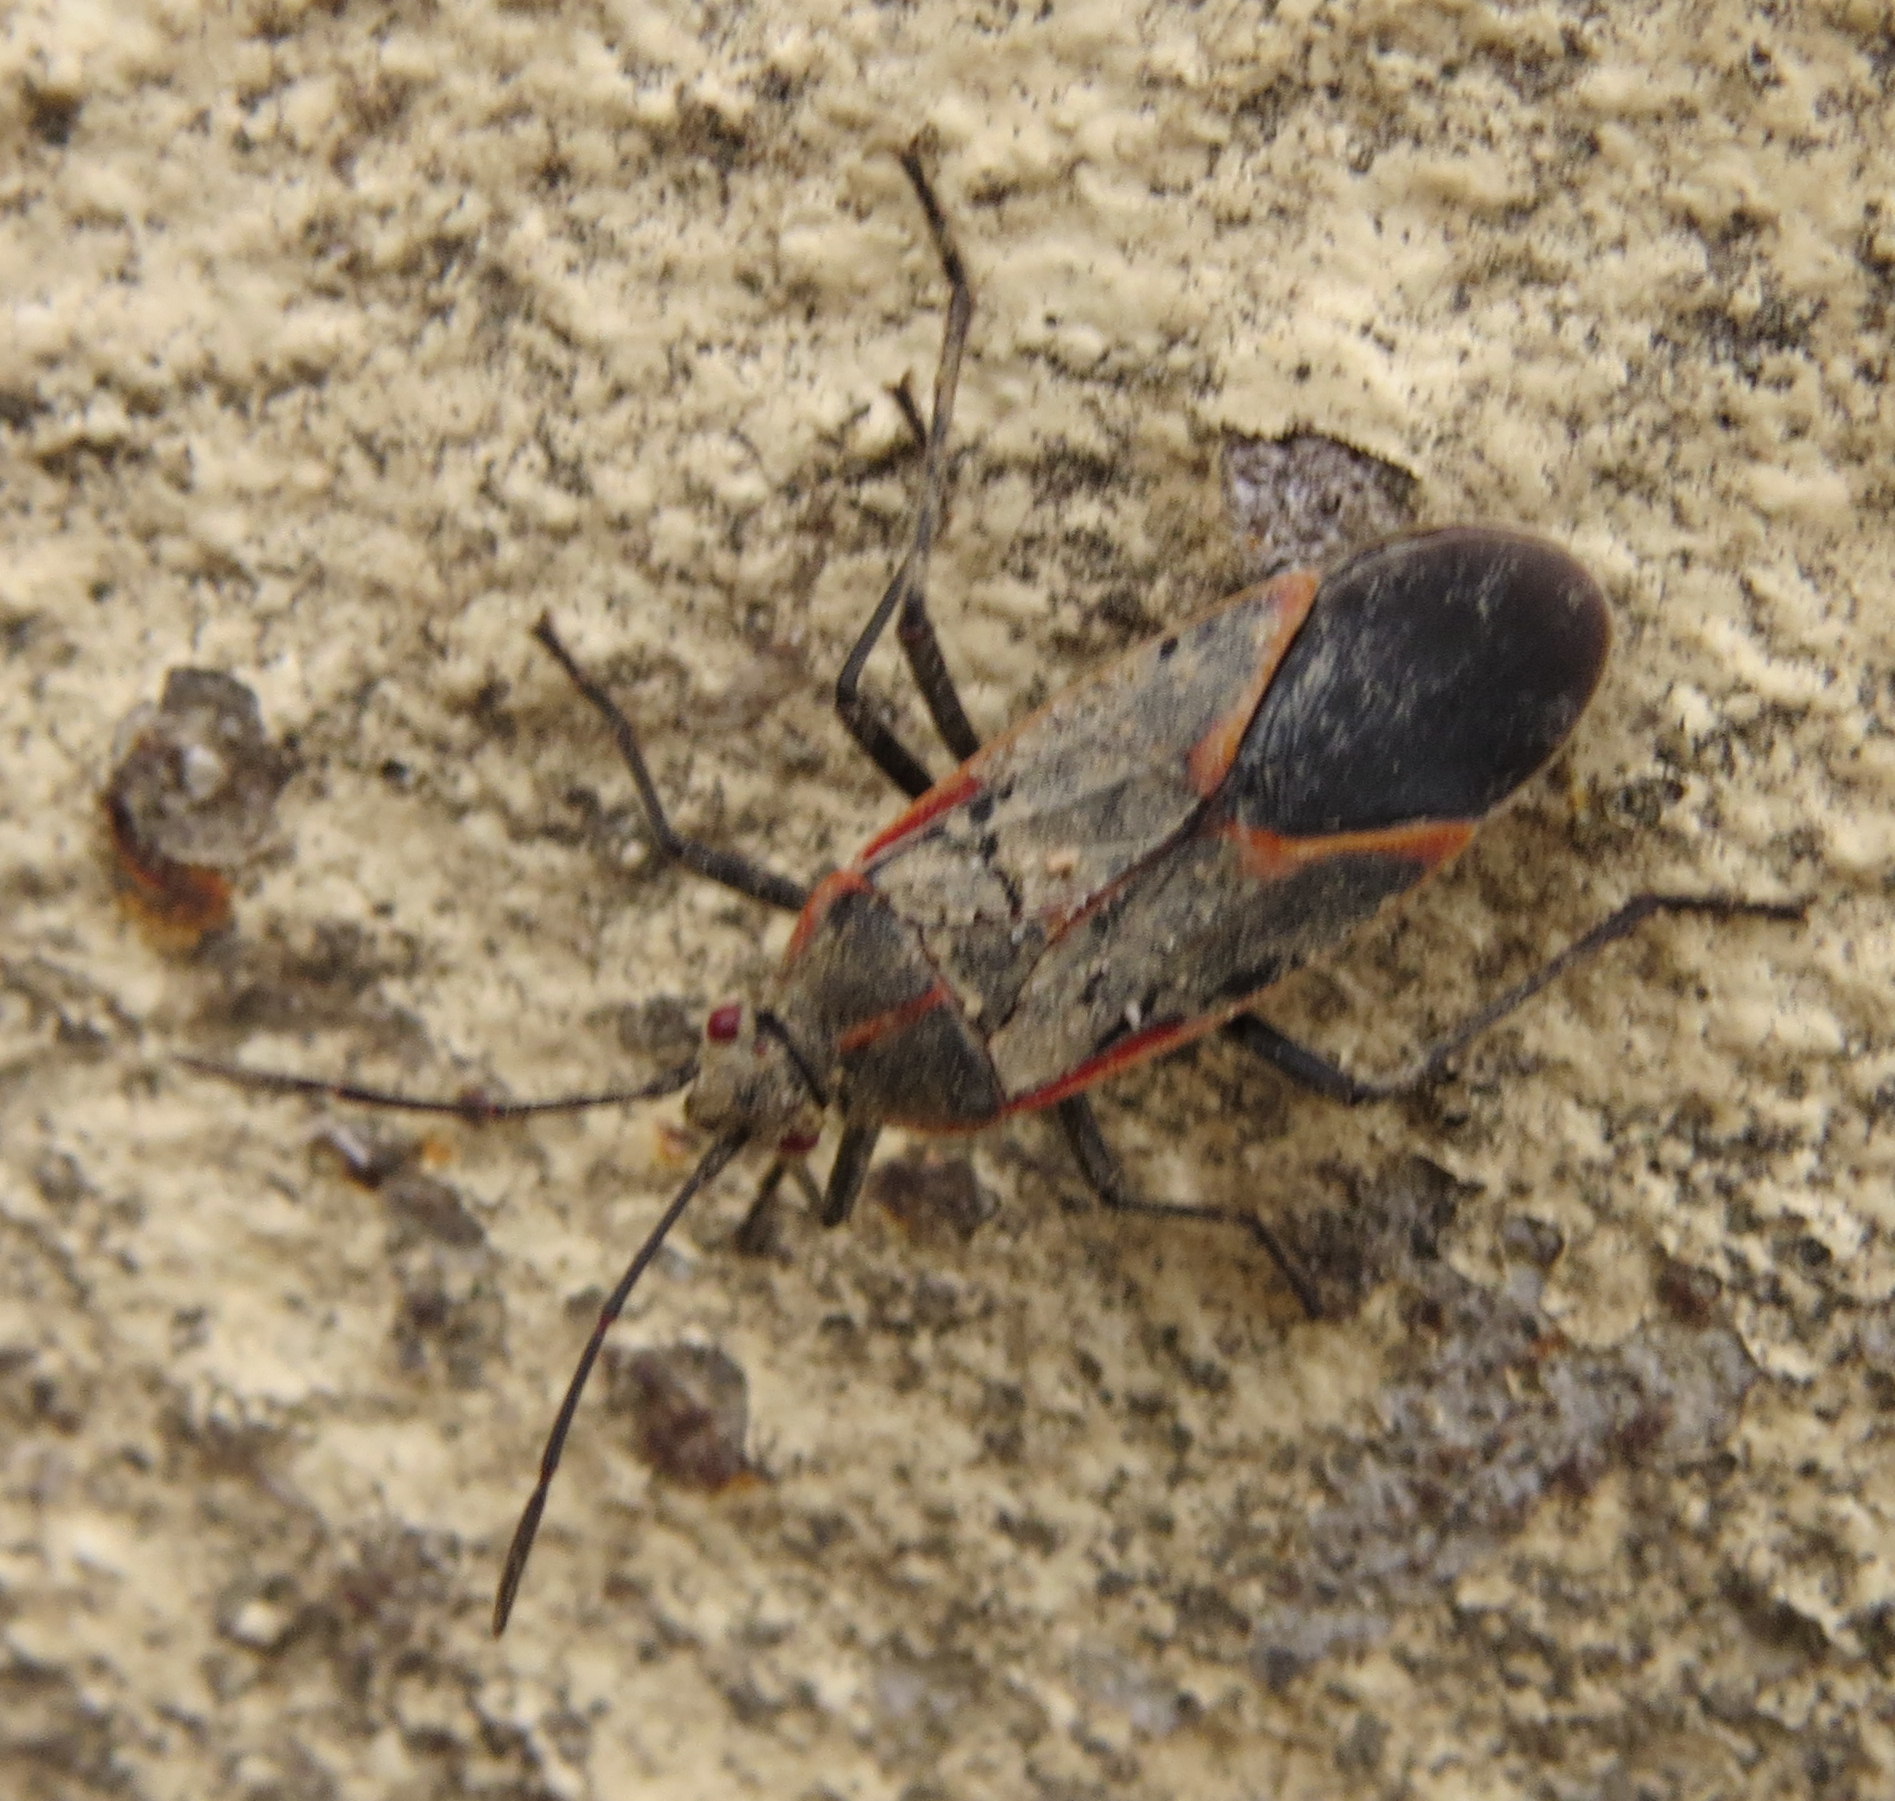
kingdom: Animalia
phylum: Arthropoda
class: Insecta
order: Hemiptera
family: Rhopalidae
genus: Boisea
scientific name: Boisea trivittata
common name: Boxelder bug
